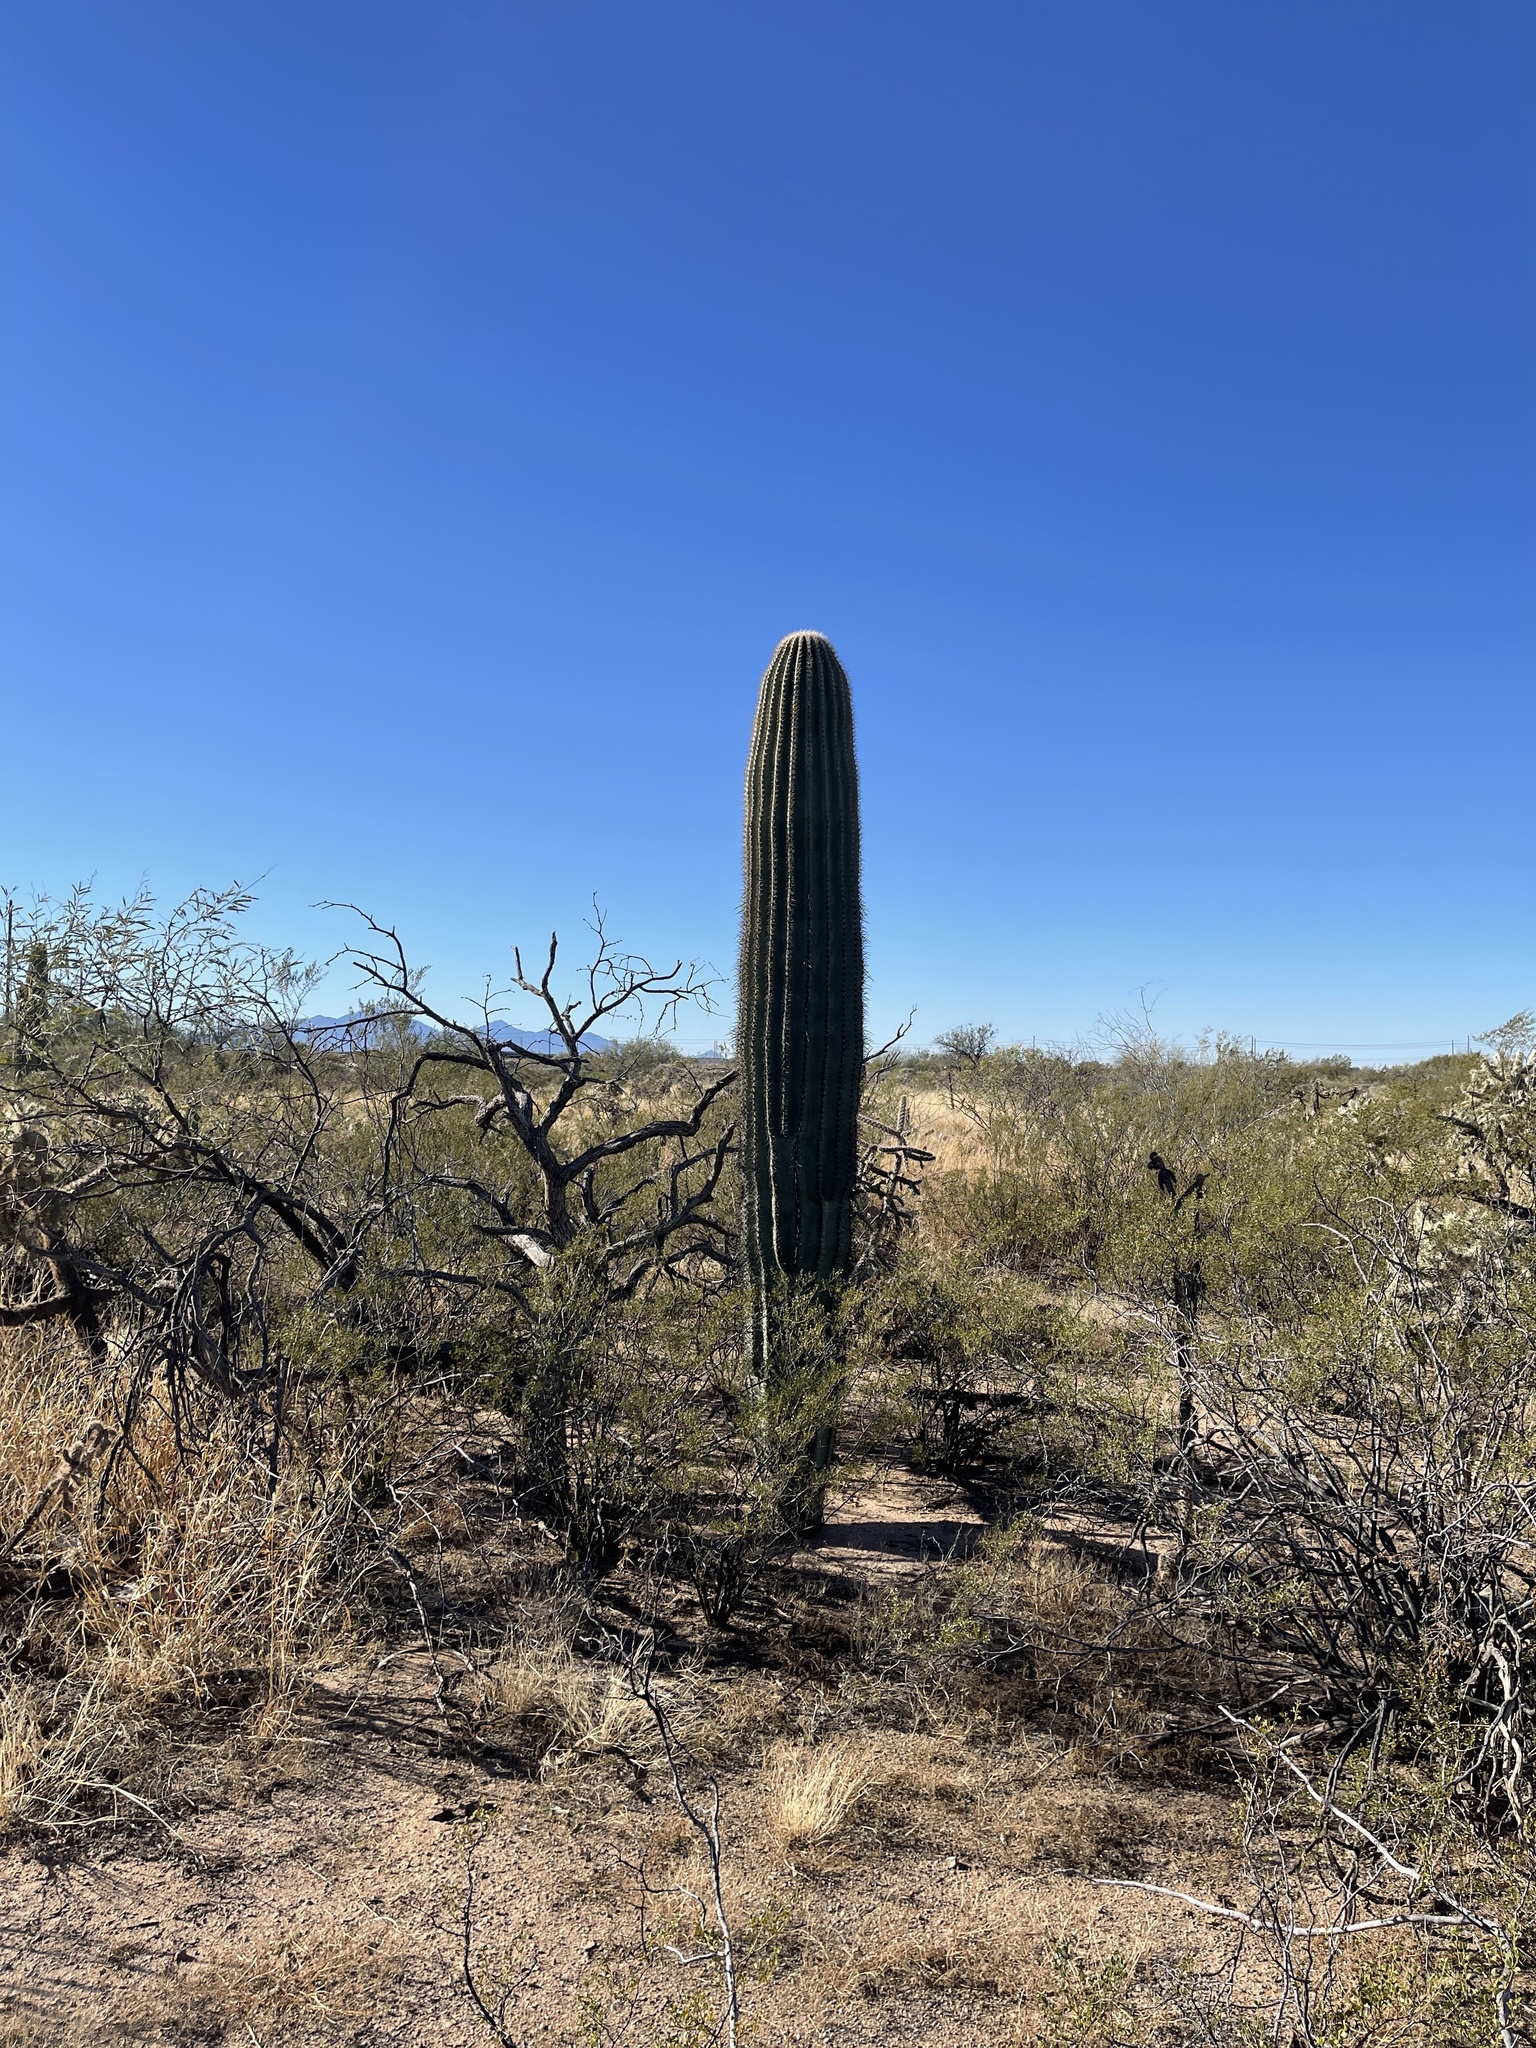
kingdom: Plantae
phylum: Tracheophyta
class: Magnoliopsida
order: Caryophyllales
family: Cactaceae
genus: Carnegiea
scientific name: Carnegiea gigantea
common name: Saguaro
